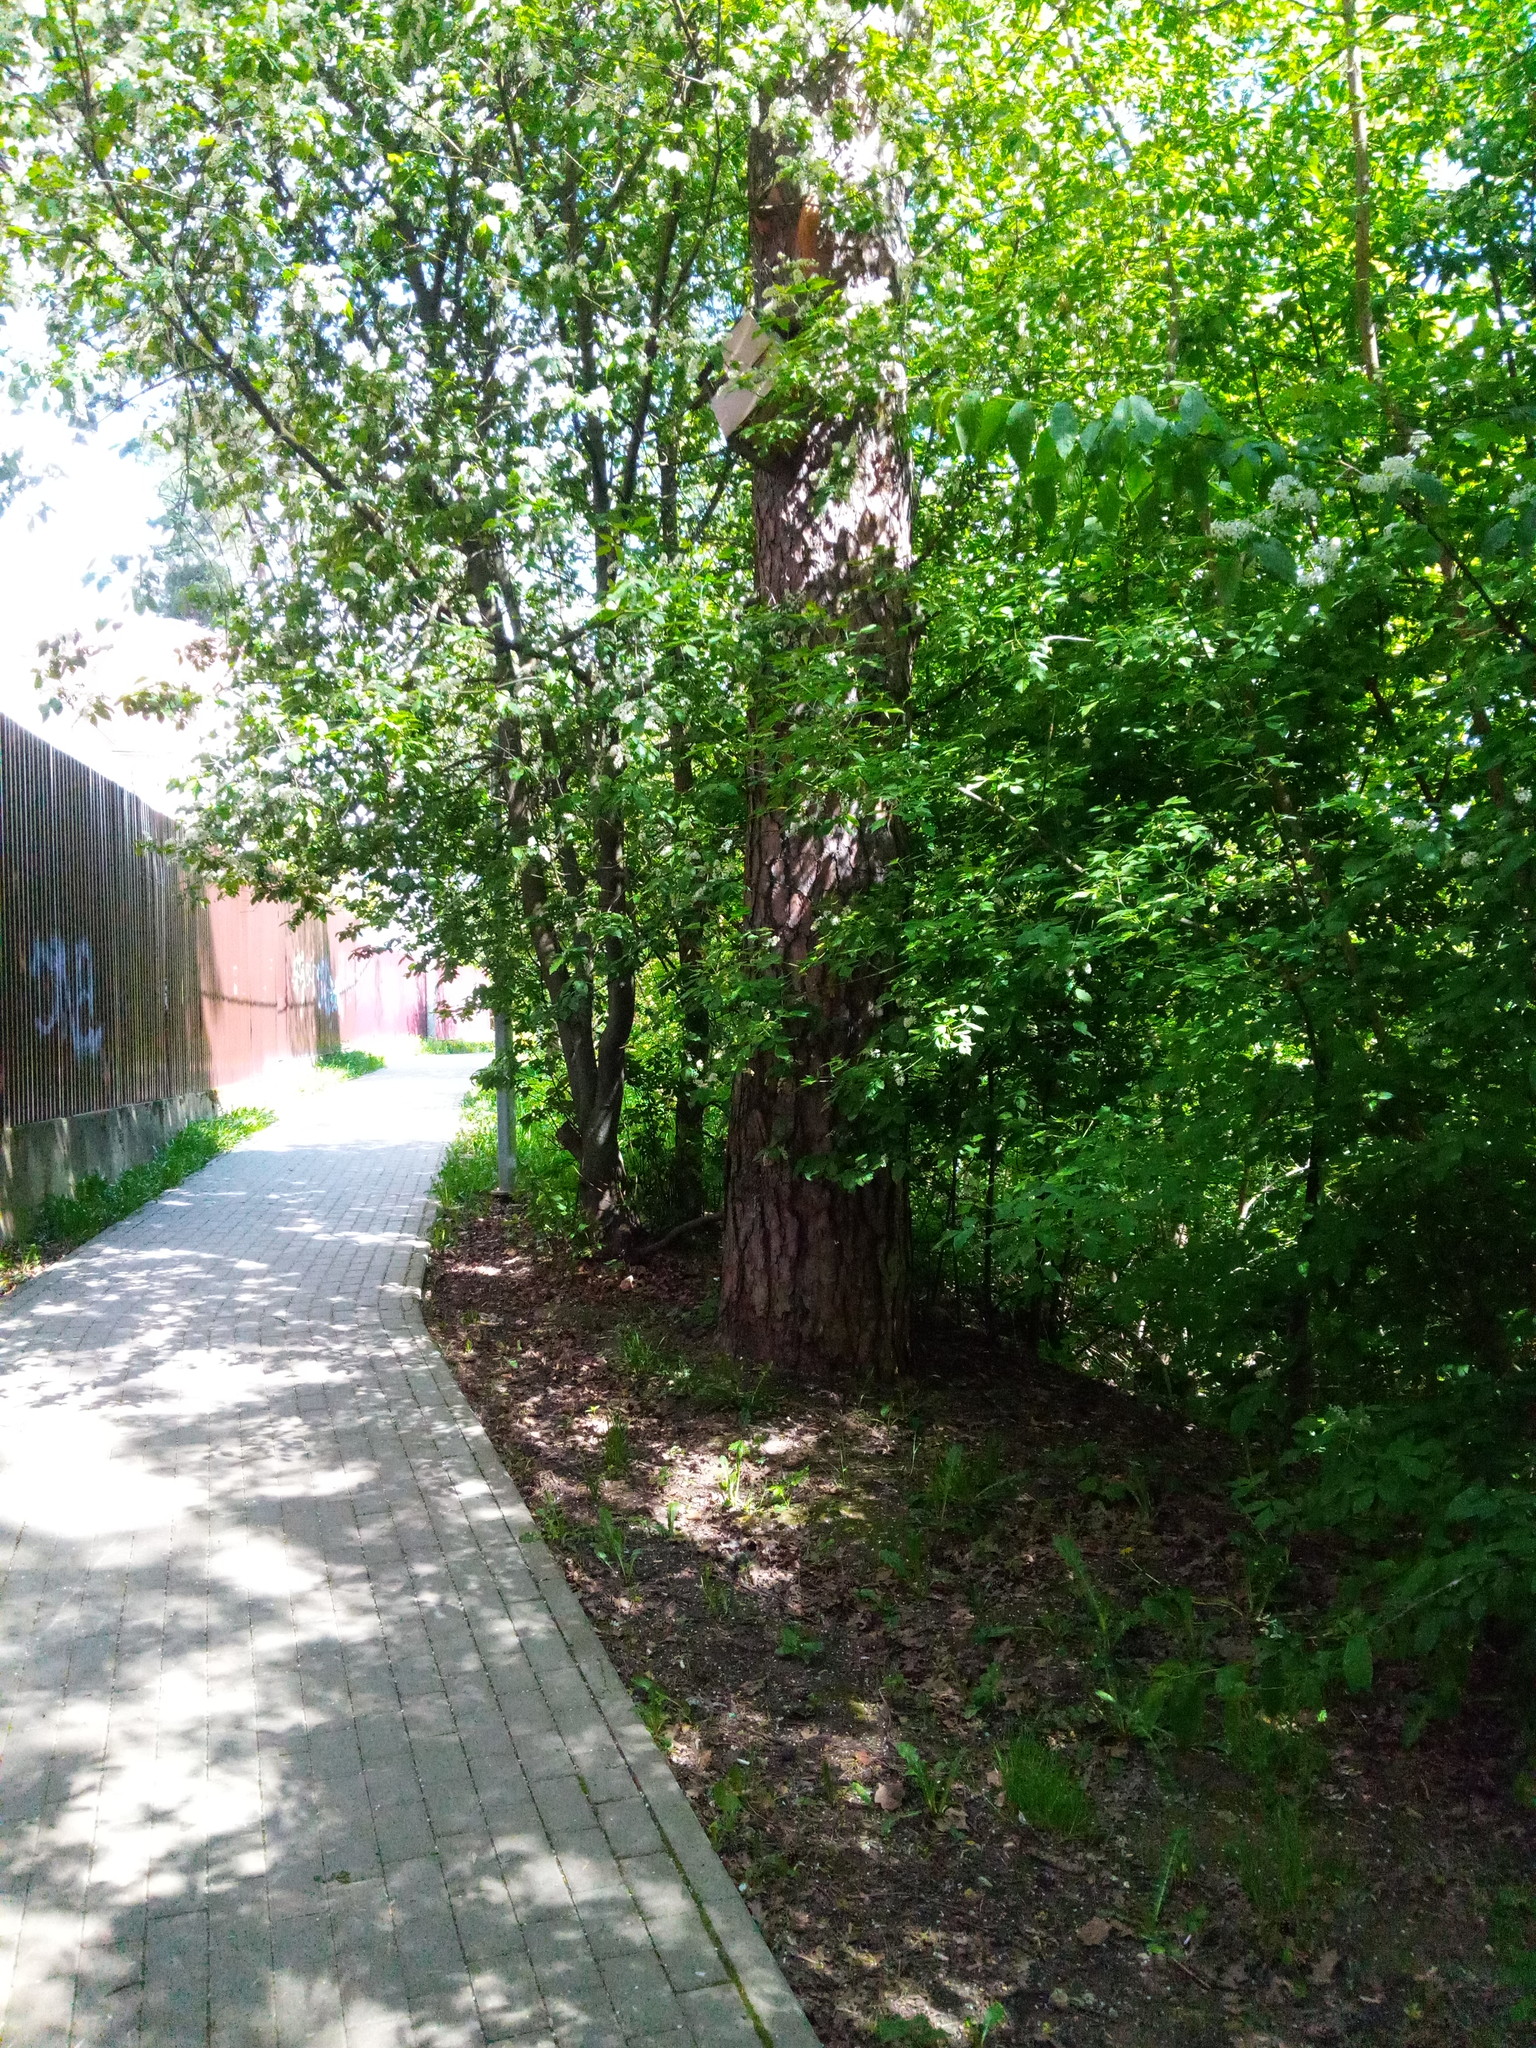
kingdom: Plantae
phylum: Tracheophyta
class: Pinopsida
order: Pinales
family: Pinaceae
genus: Pinus
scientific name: Pinus sylvestris
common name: Scots pine
